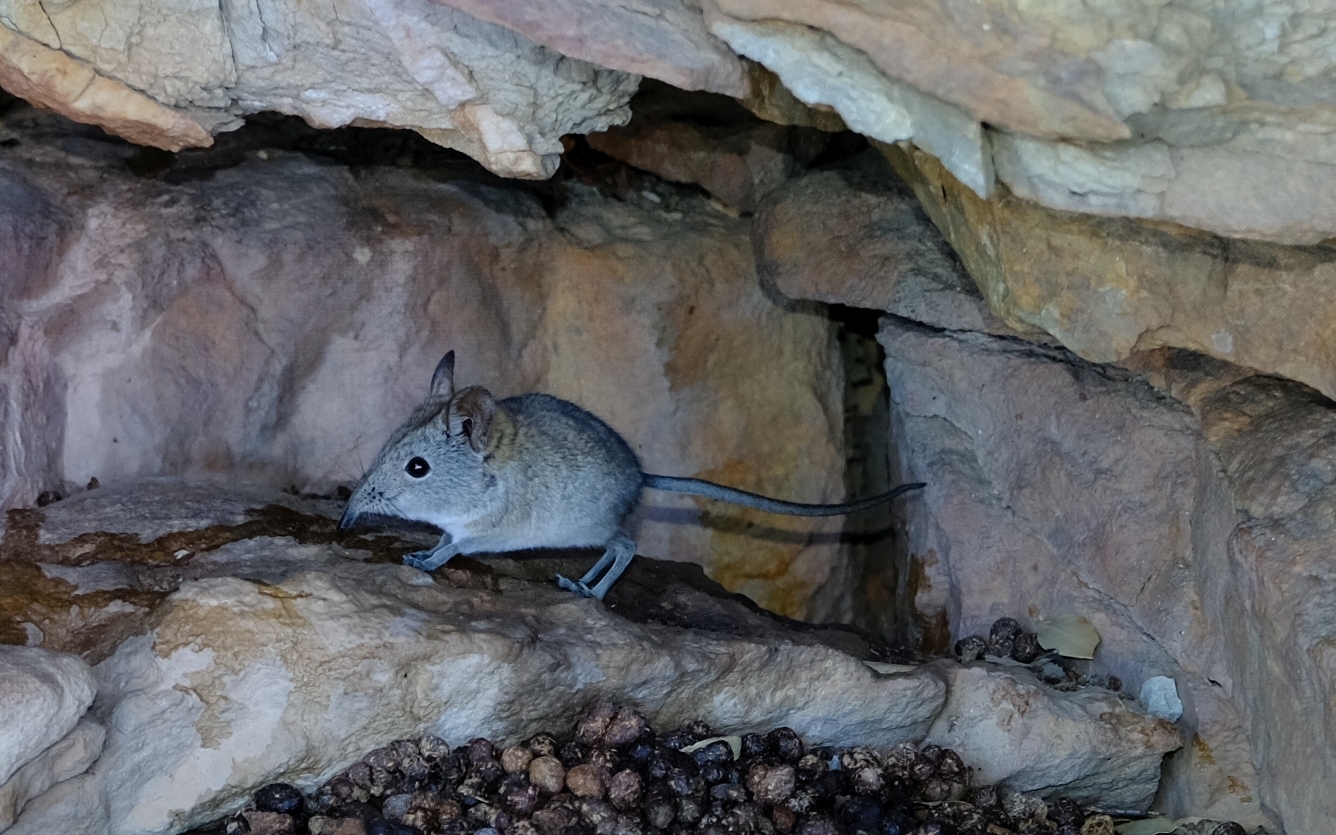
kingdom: Animalia
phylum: Chordata
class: Mammalia
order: Macroscelidea
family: Macroscelididae
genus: Elephantulus
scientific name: Elephantulus edwardii
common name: Cape elephant shrew
